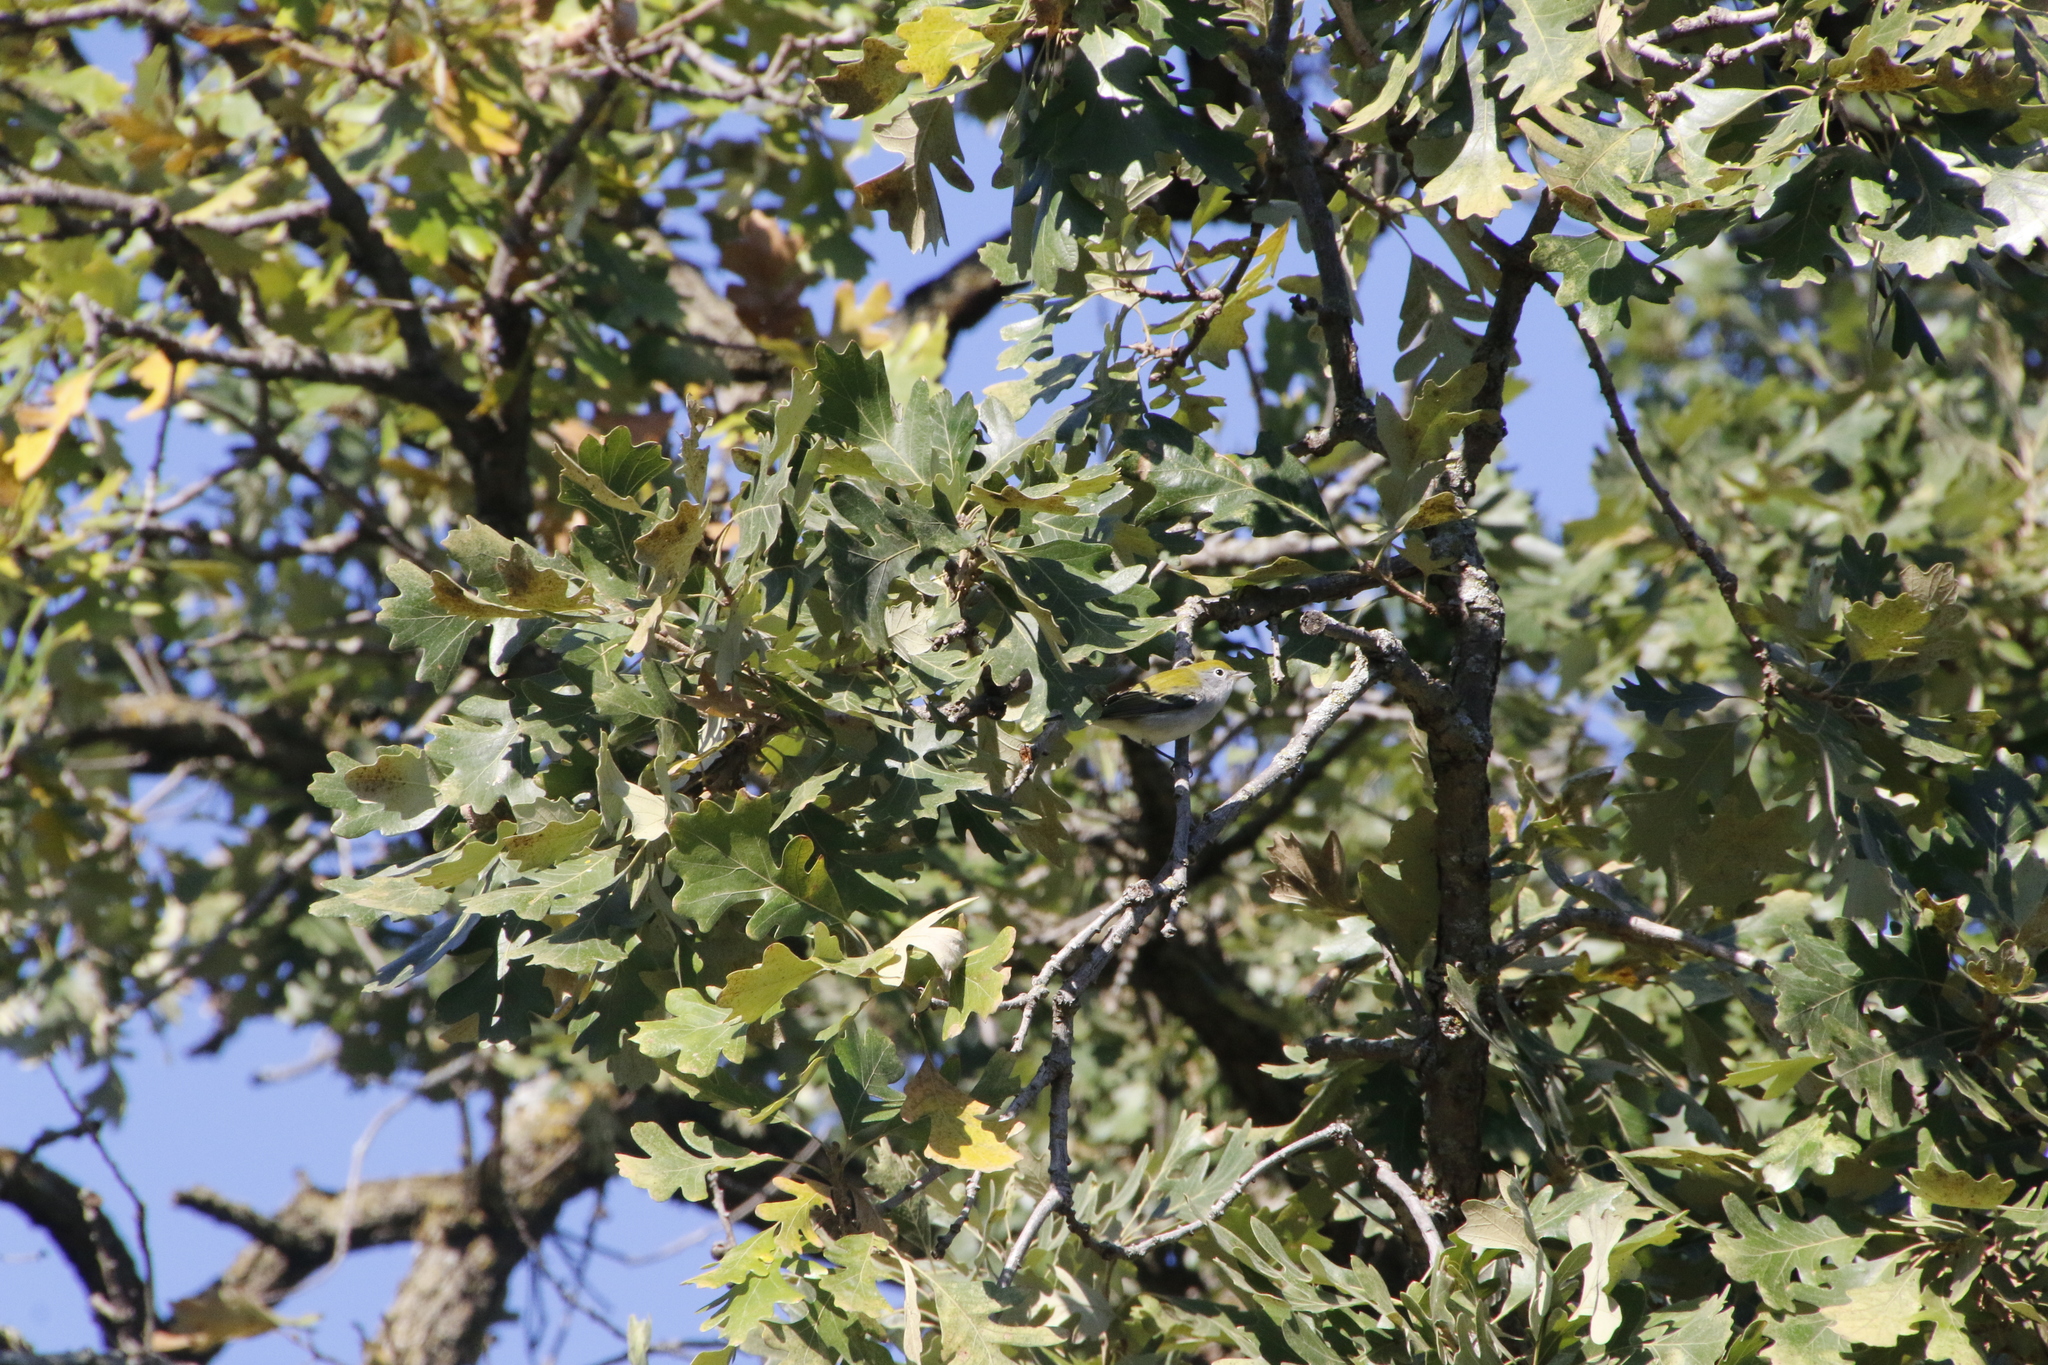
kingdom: Animalia
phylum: Chordata
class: Aves
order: Passeriformes
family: Parulidae
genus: Setophaga
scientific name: Setophaga pensylvanica
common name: Chestnut-sided warbler
